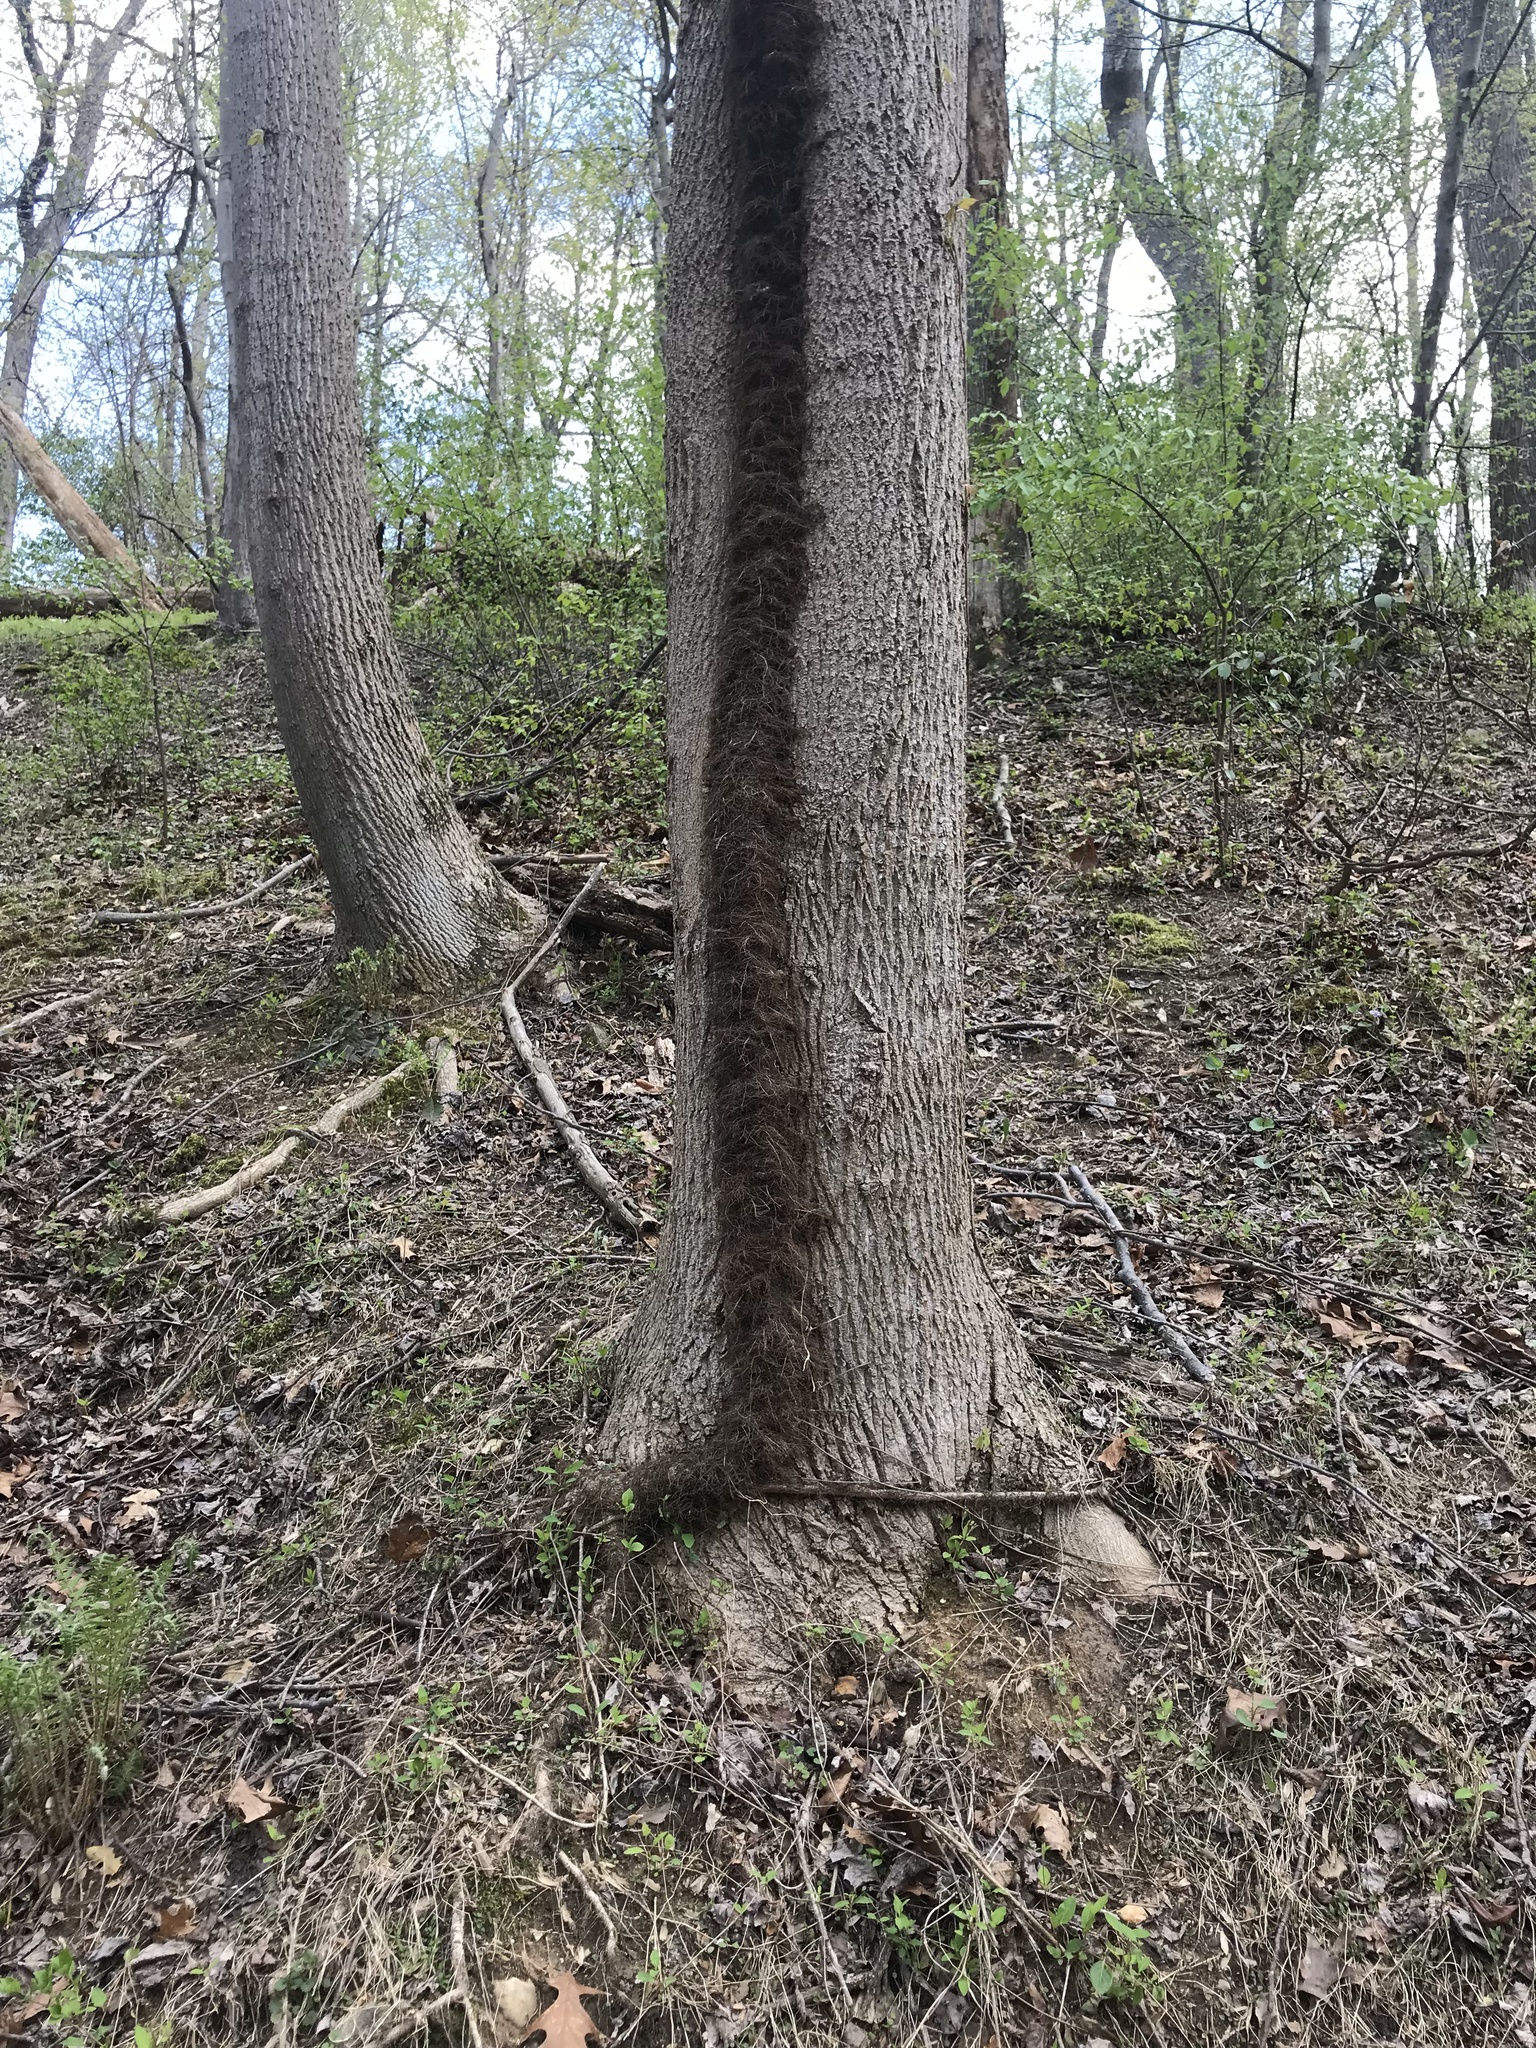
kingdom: Plantae
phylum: Tracheophyta
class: Magnoliopsida
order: Sapindales
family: Anacardiaceae
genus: Toxicodendron
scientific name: Toxicodendron radicans
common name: Poison ivy
